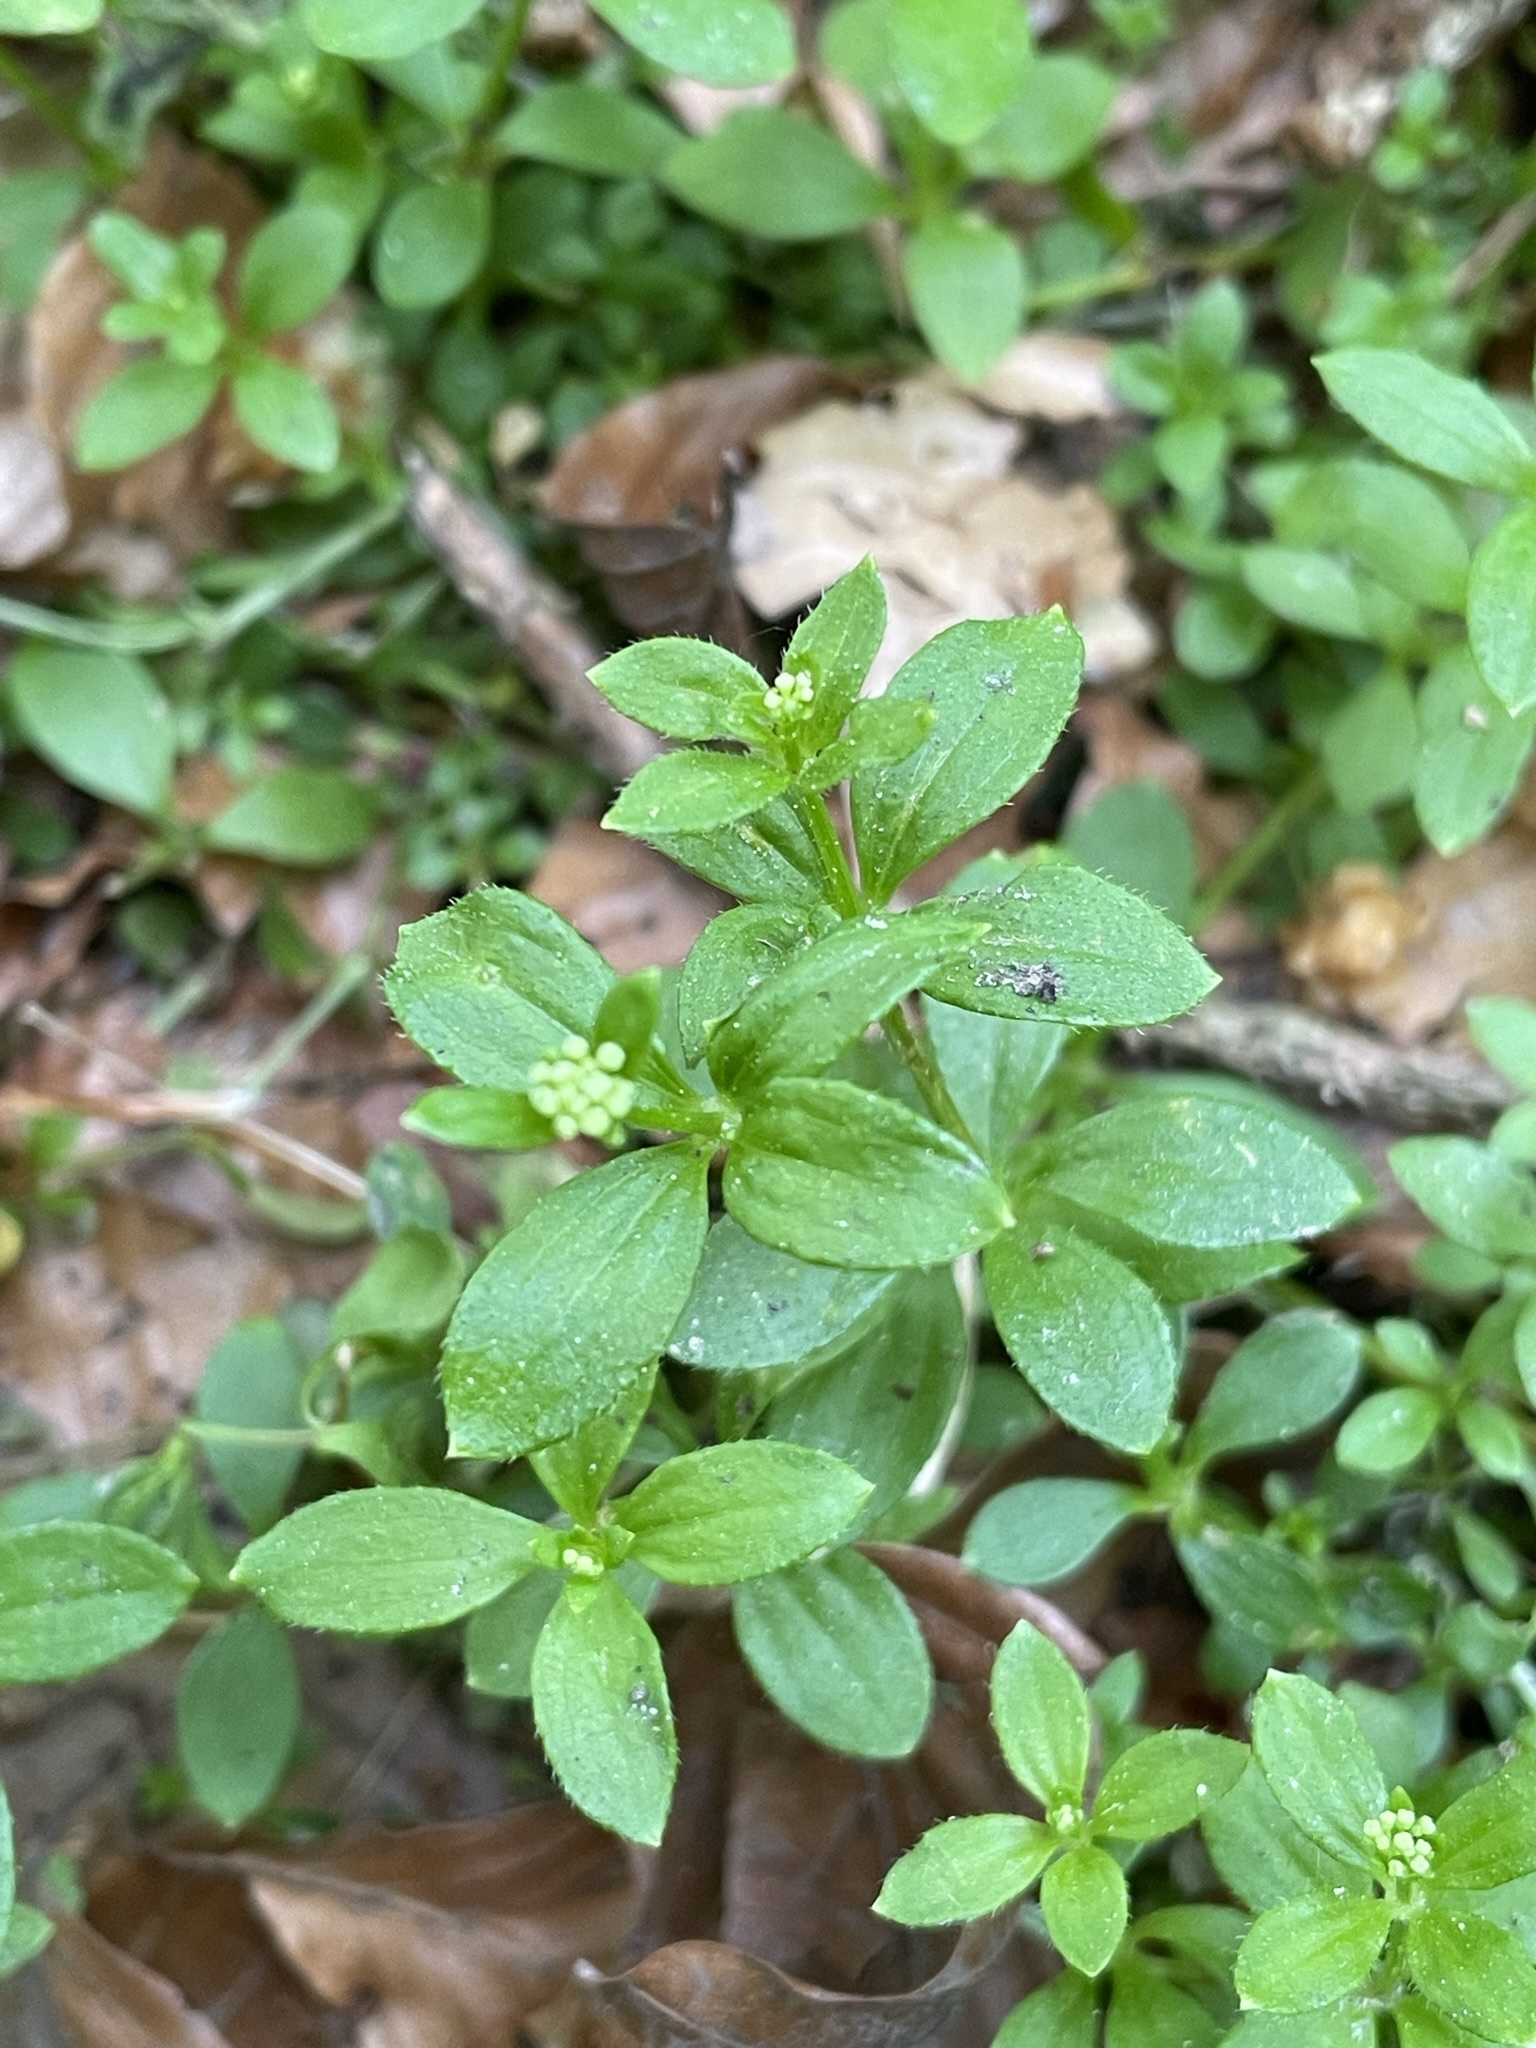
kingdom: Plantae
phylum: Tracheophyta
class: Magnoliopsida
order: Gentianales
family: Rubiaceae
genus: Galium
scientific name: Galium rotundifolium
